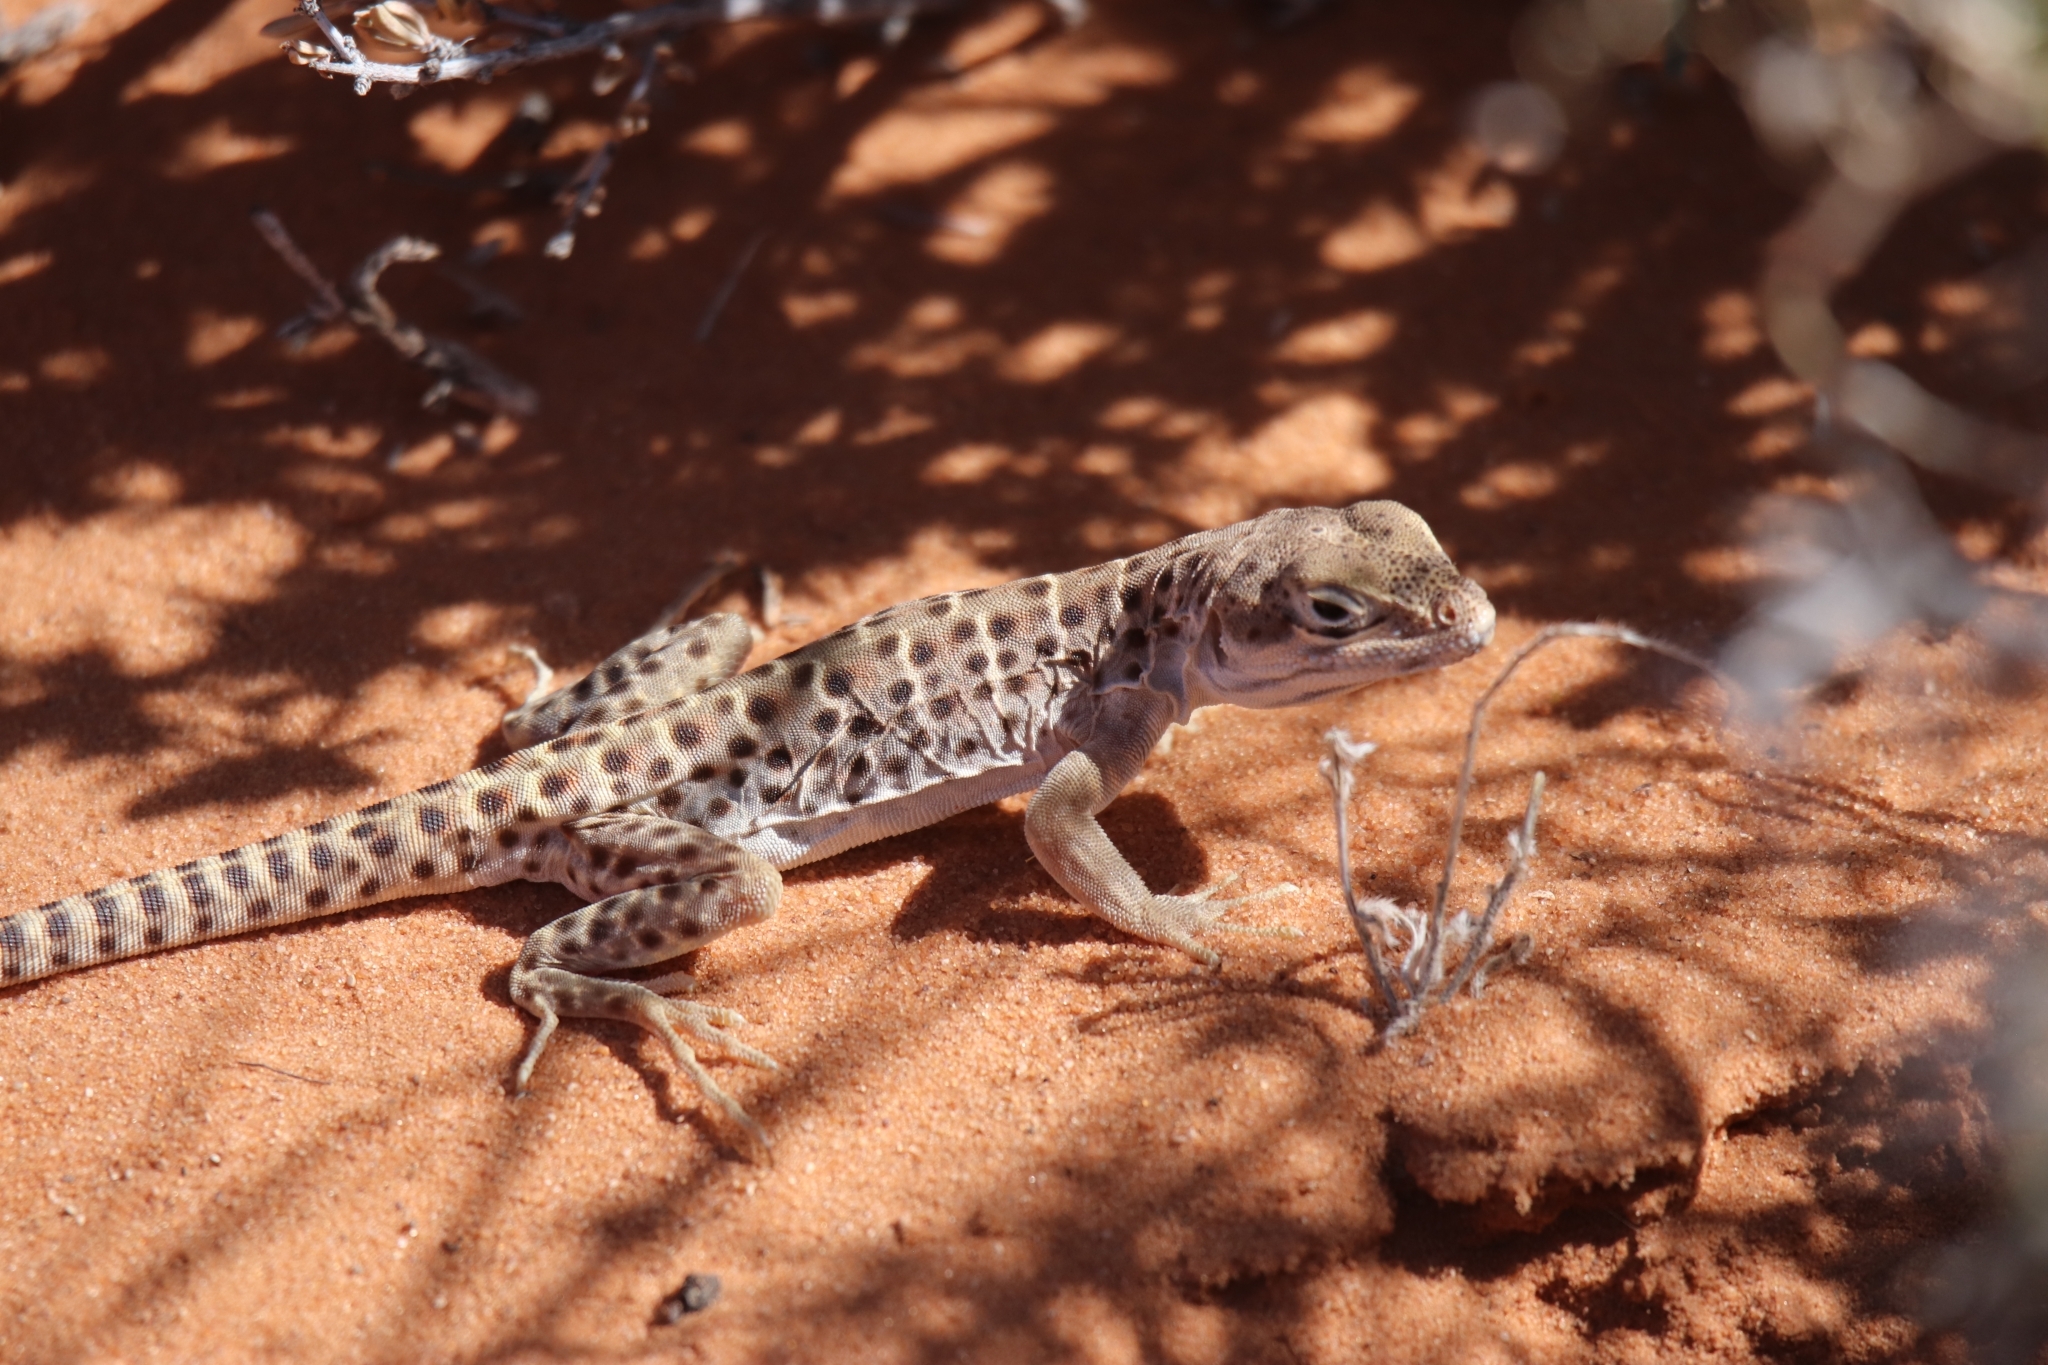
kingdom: Animalia
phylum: Chordata
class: Squamata
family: Crotaphytidae
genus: Gambelia
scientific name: Gambelia wislizenii
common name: Longnose leopard lizard
